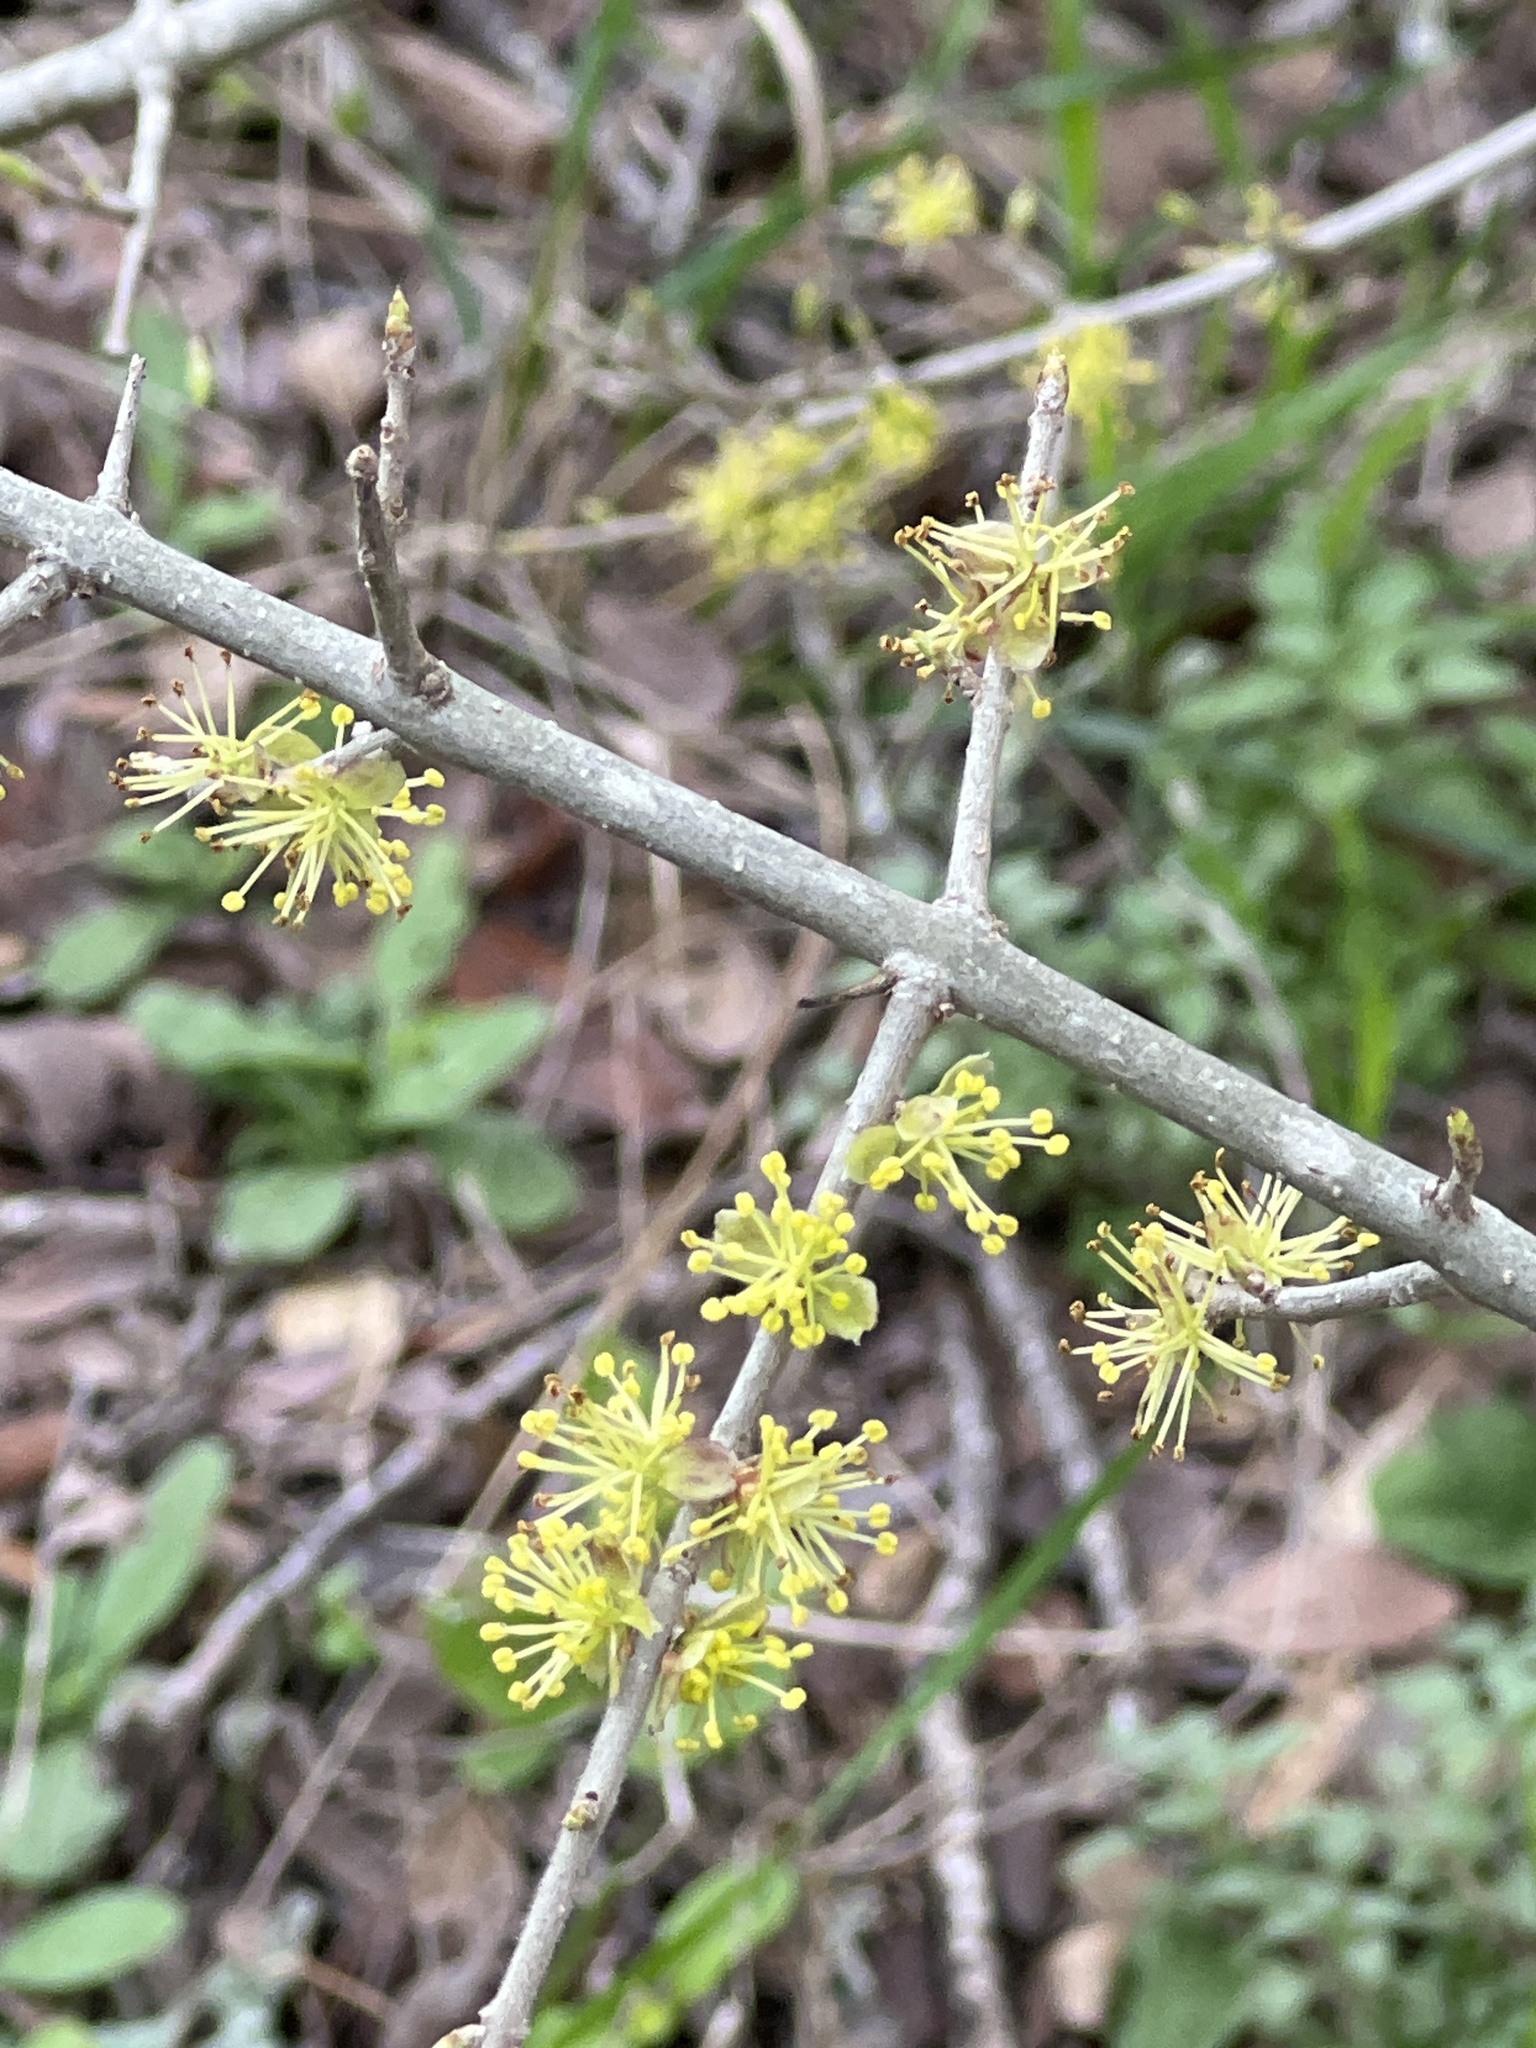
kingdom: Plantae
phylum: Tracheophyta
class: Magnoliopsida
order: Lamiales
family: Oleaceae
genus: Forestiera
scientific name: Forestiera pubescens
